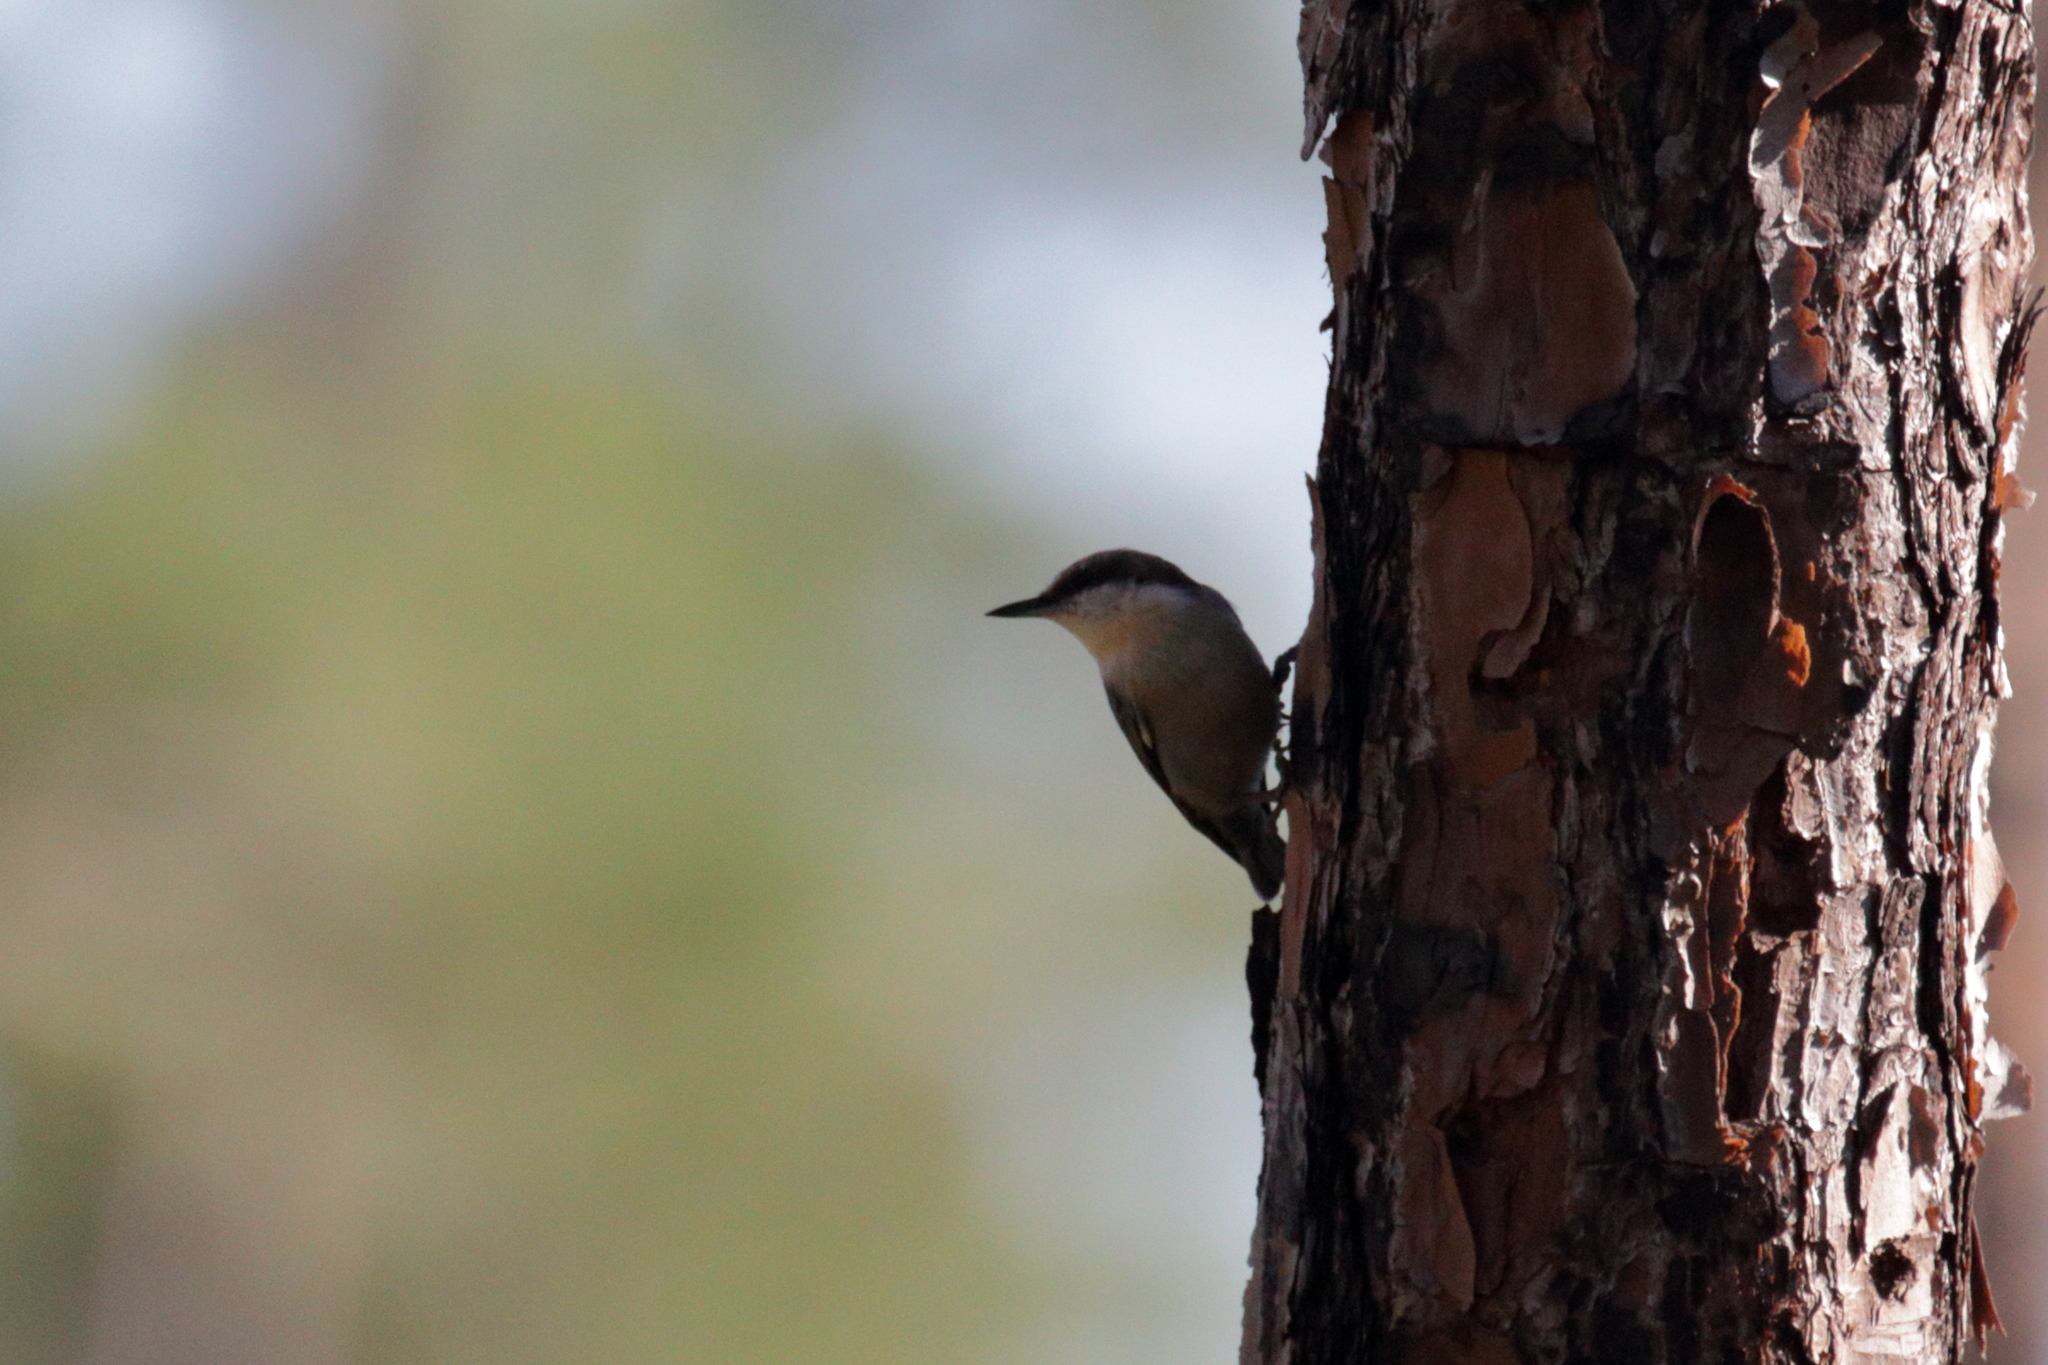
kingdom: Animalia
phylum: Chordata
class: Aves
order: Passeriformes
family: Sittidae
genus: Sitta
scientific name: Sitta pusilla
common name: Brown-headed nuthatch
